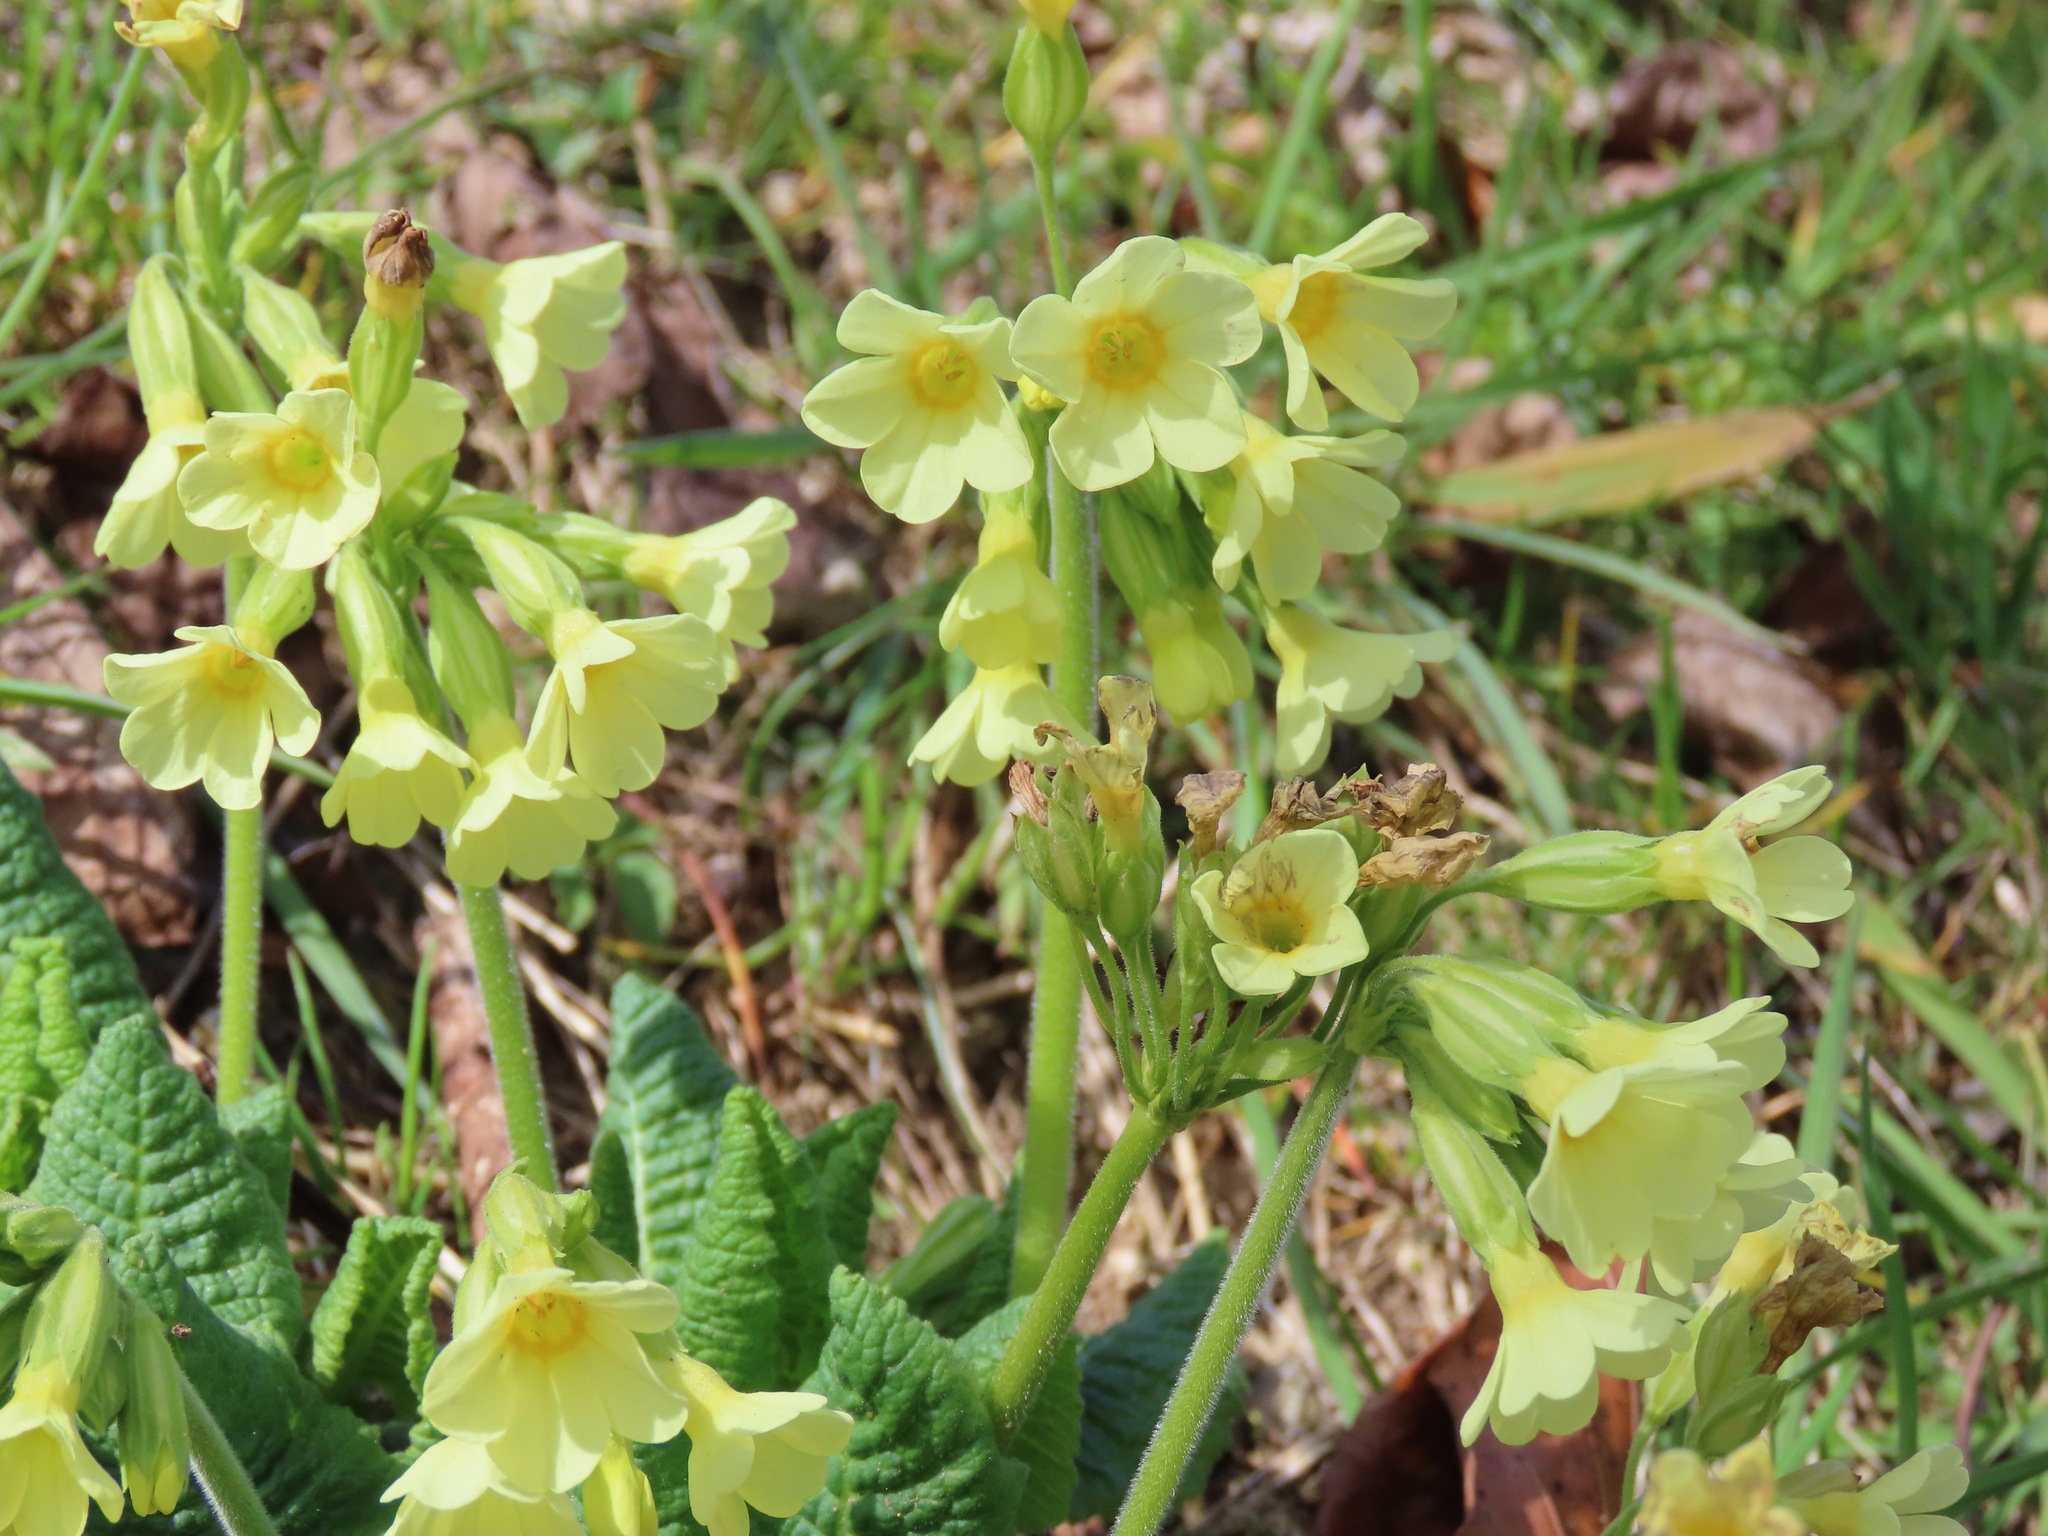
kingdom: Plantae
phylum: Tracheophyta
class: Magnoliopsida
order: Ericales
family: Primulaceae
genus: Primula
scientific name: Primula elatior
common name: Oxlip
